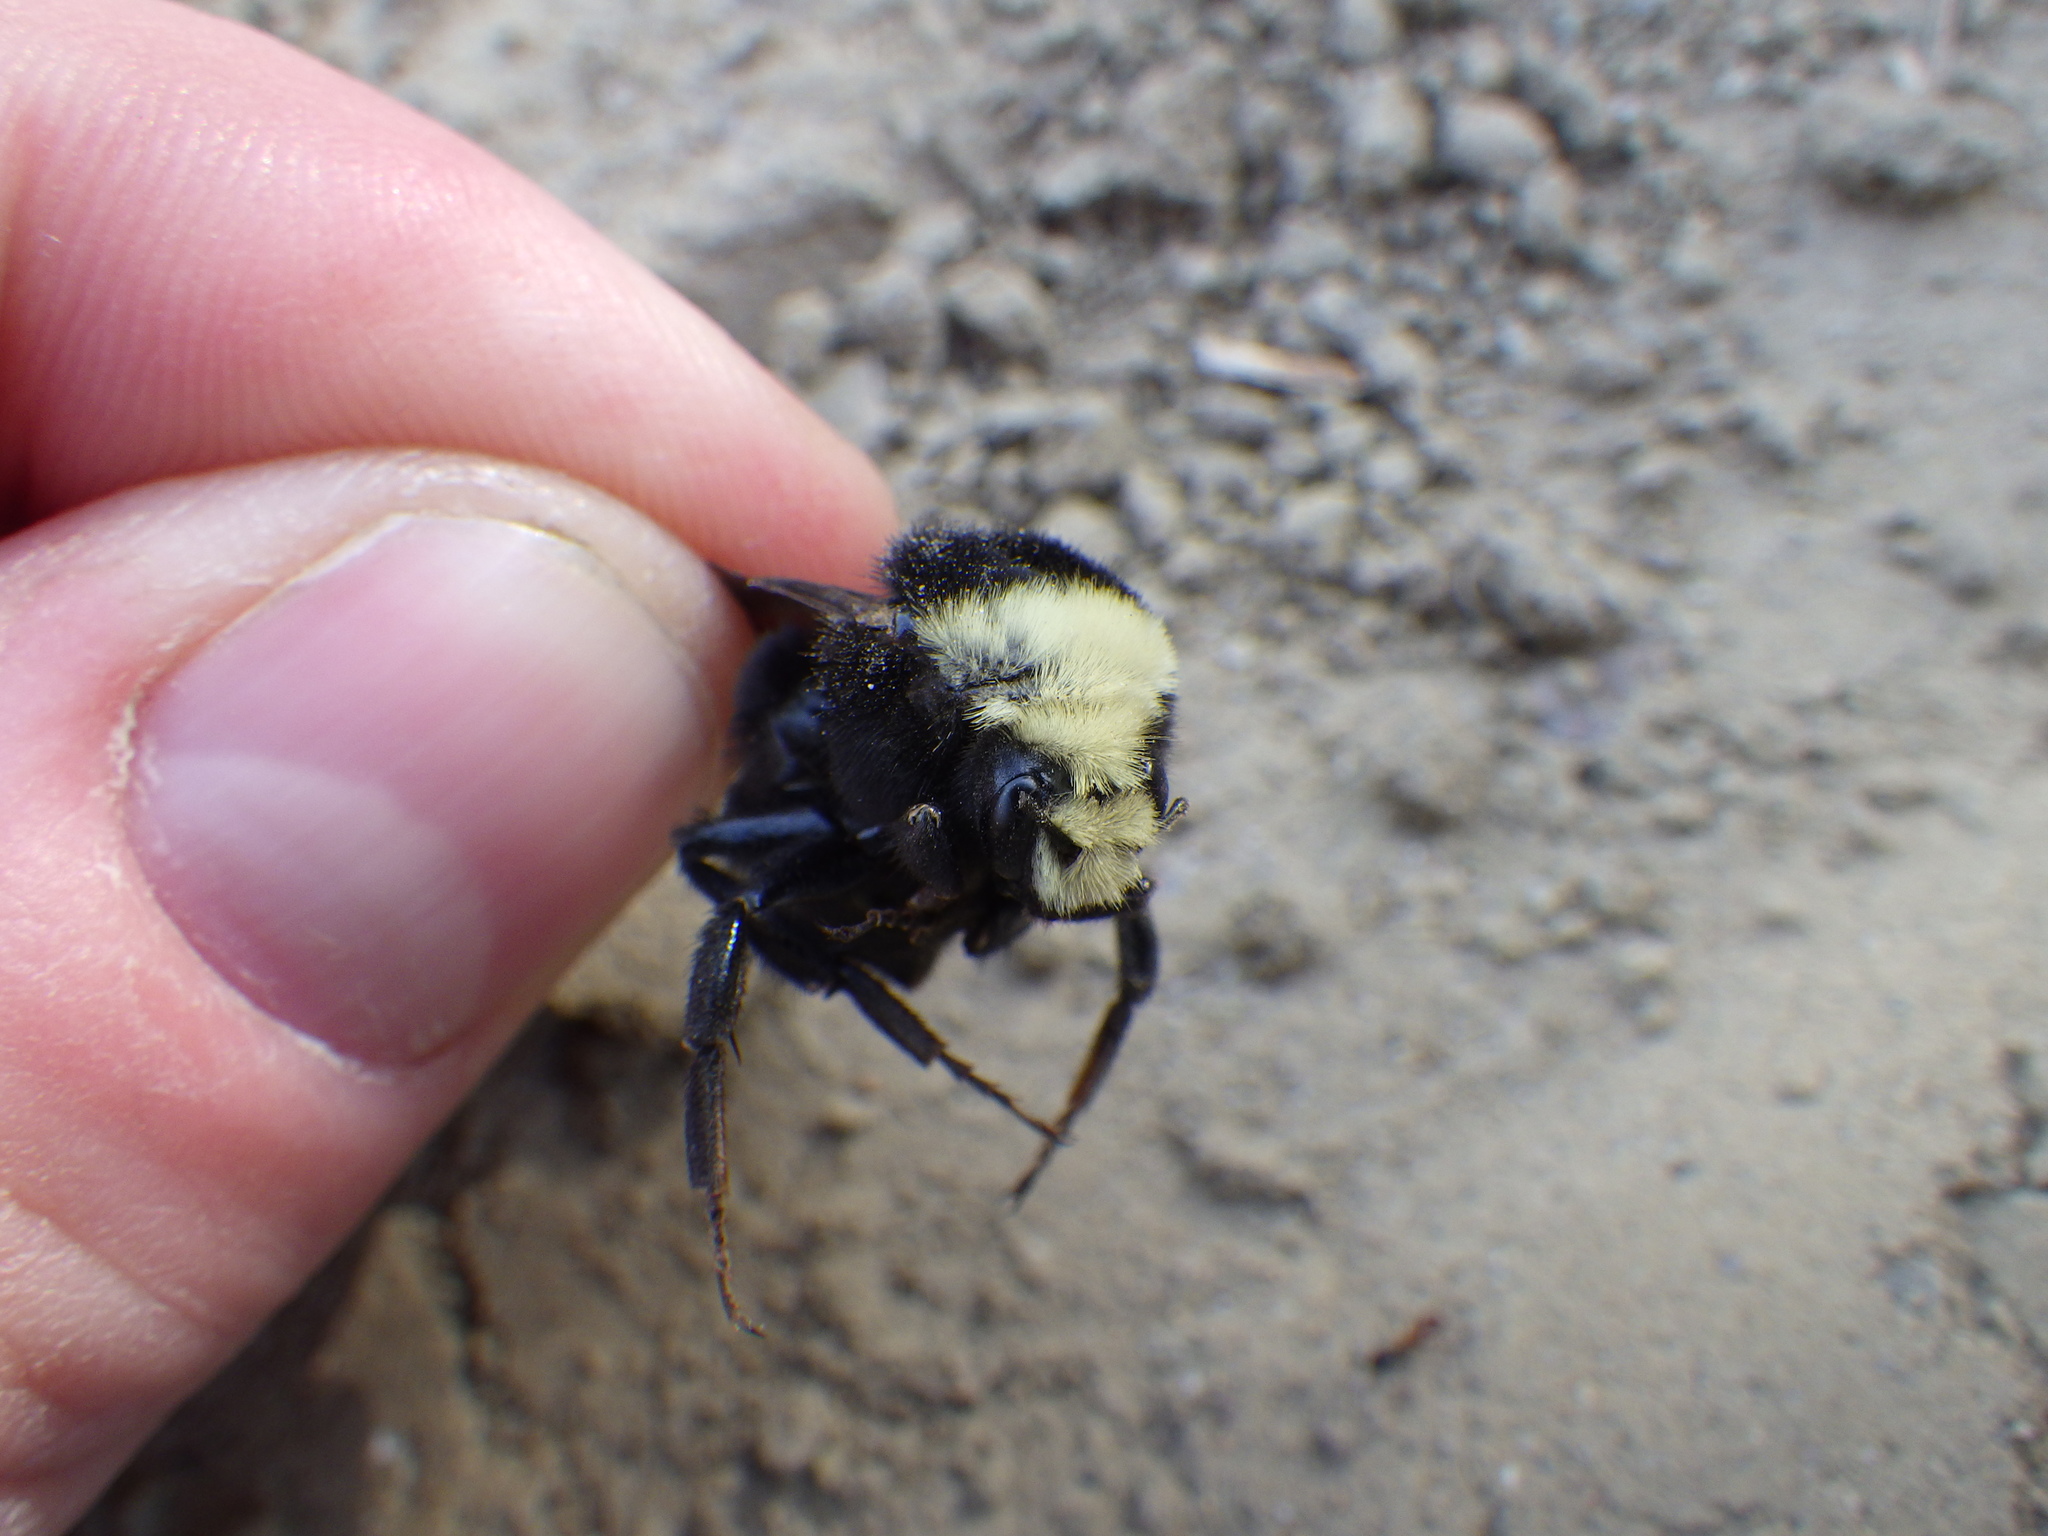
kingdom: Animalia
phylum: Arthropoda
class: Insecta
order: Hymenoptera
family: Apidae
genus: Bombus
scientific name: Bombus vosnesenskii
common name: Vosnesensky bumble bee
